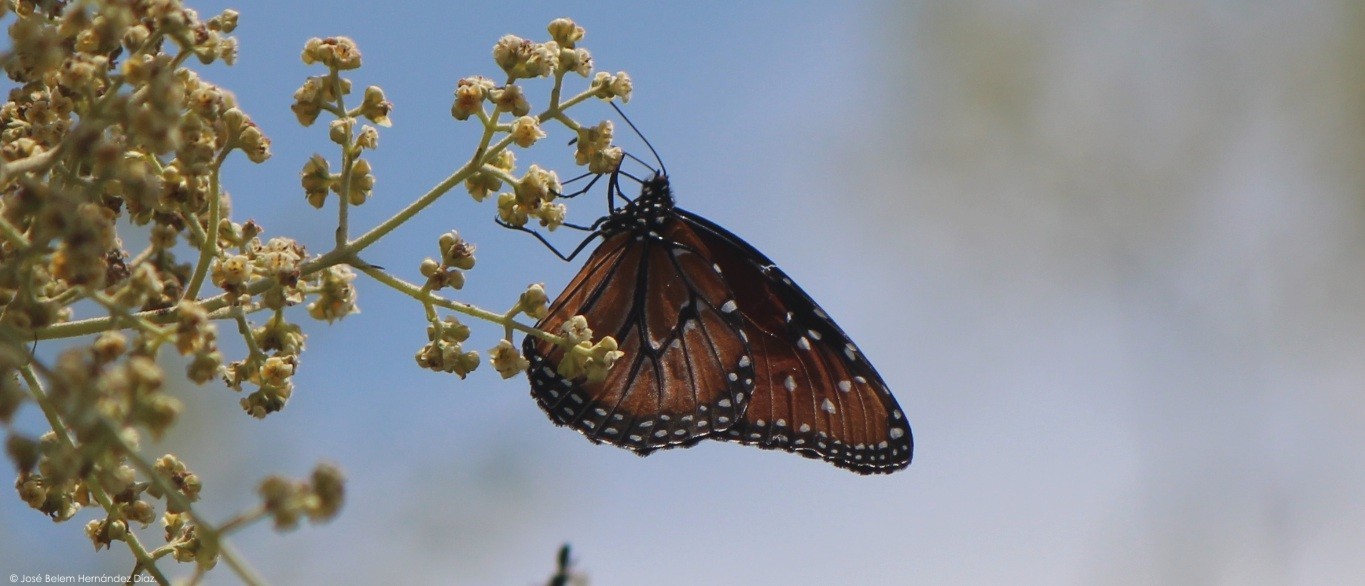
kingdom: Animalia
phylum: Arthropoda
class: Insecta
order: Lepidoptera
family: Nymphalidae
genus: Danaus
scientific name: Danaus gilippus
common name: Queen
